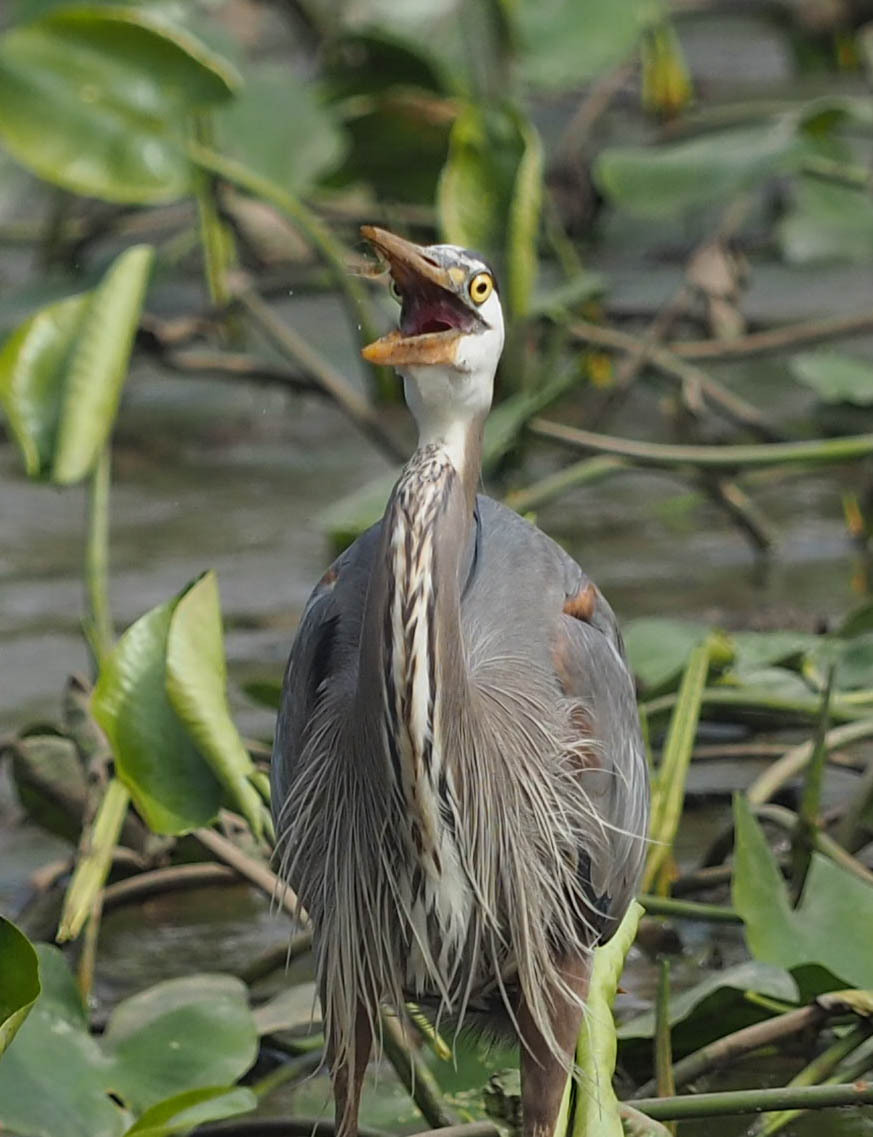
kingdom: Animalia
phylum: Chordata
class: Aves
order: Pelecaniformes
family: Ardeidae
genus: Ardea
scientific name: Ardea herodias
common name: Great blue heron
